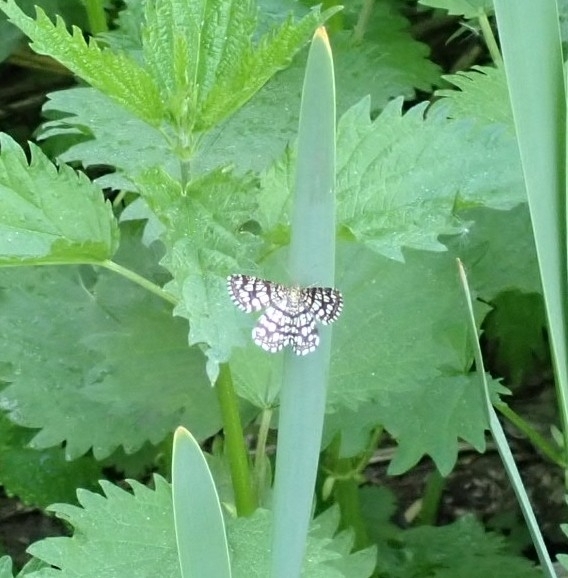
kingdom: Animalia
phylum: Arthropoda
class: Insecta
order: Lepidoptera
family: Geometridae
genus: Chiasmia
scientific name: Chiasmia clathrata
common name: Latticed heath
